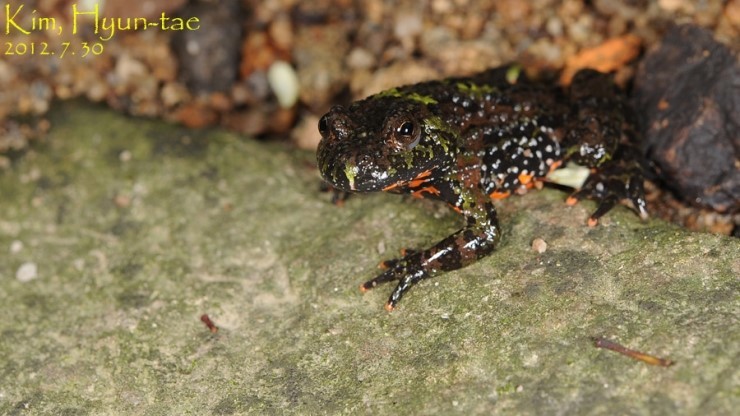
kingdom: Animalia
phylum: Chordata
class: Amphibia
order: Anura
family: Bombinatoridae
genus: Bombina
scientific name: Bombina orientalis
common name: Oriental firebelly toad
